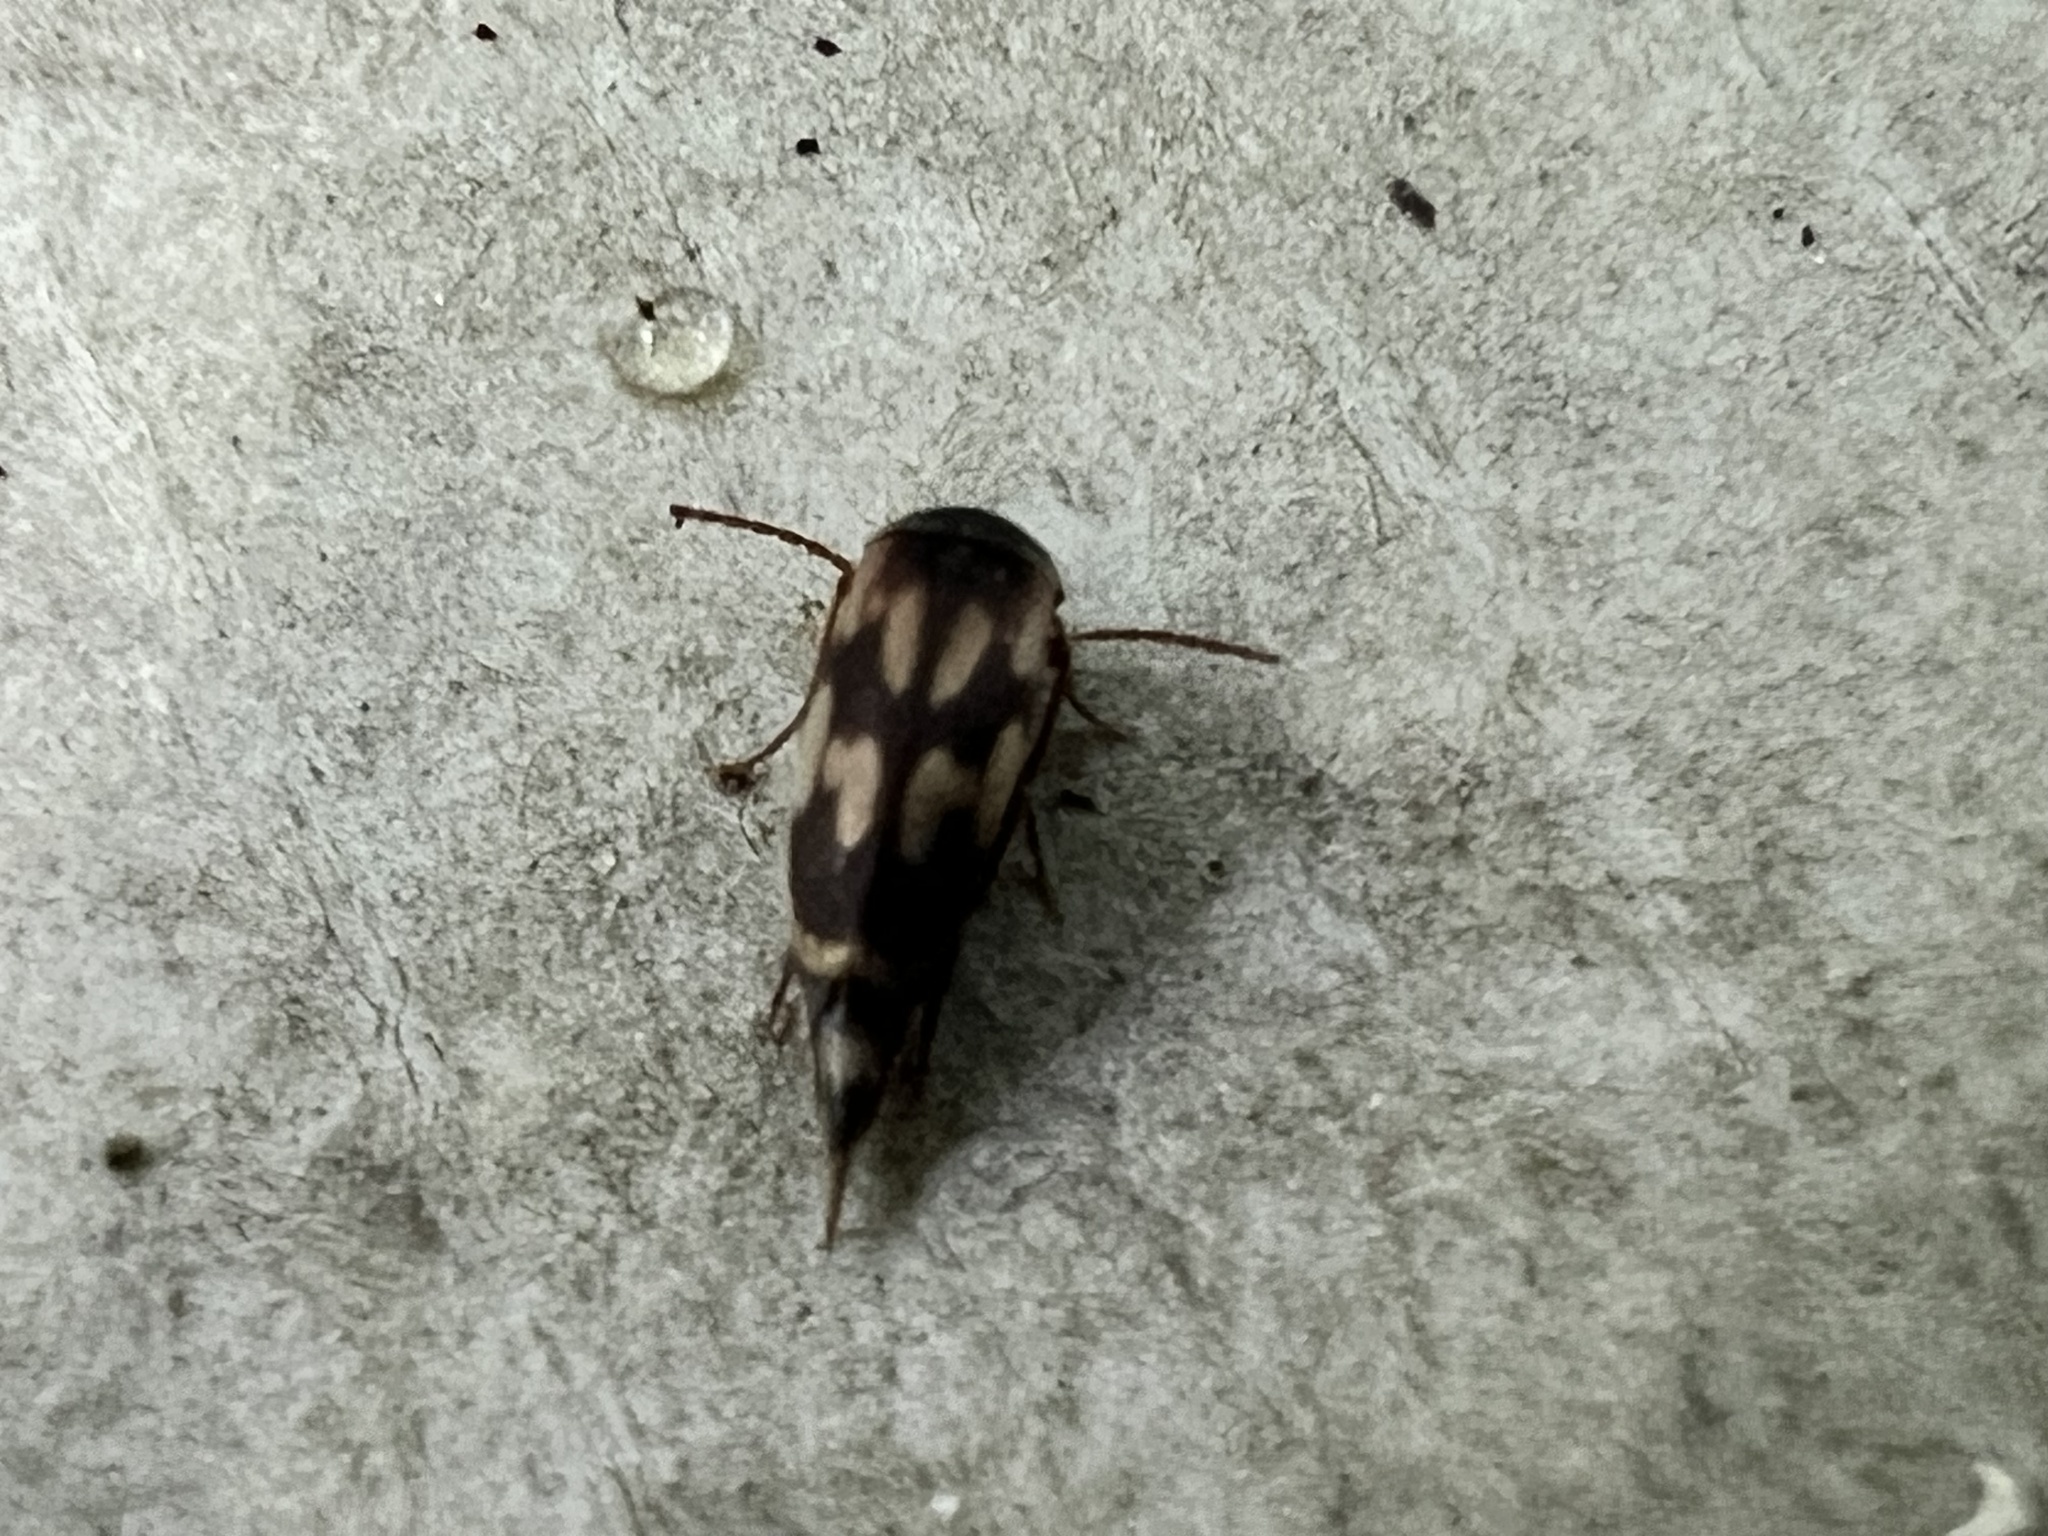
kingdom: Animalia
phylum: Arthropoda
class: Insecta
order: Coleoptera
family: Mordellidae
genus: Falsomordellistena
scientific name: Falsomordellistena bihamata
